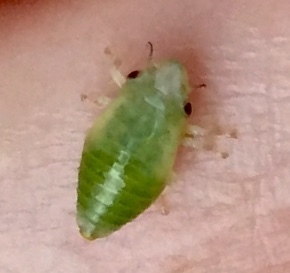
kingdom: Animalia
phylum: Arthropoda
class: Insecta
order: Hemiptera
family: Aphrophoridae
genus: Philaenus
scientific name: Philaenus spumarius
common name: Meadow spittlebug
